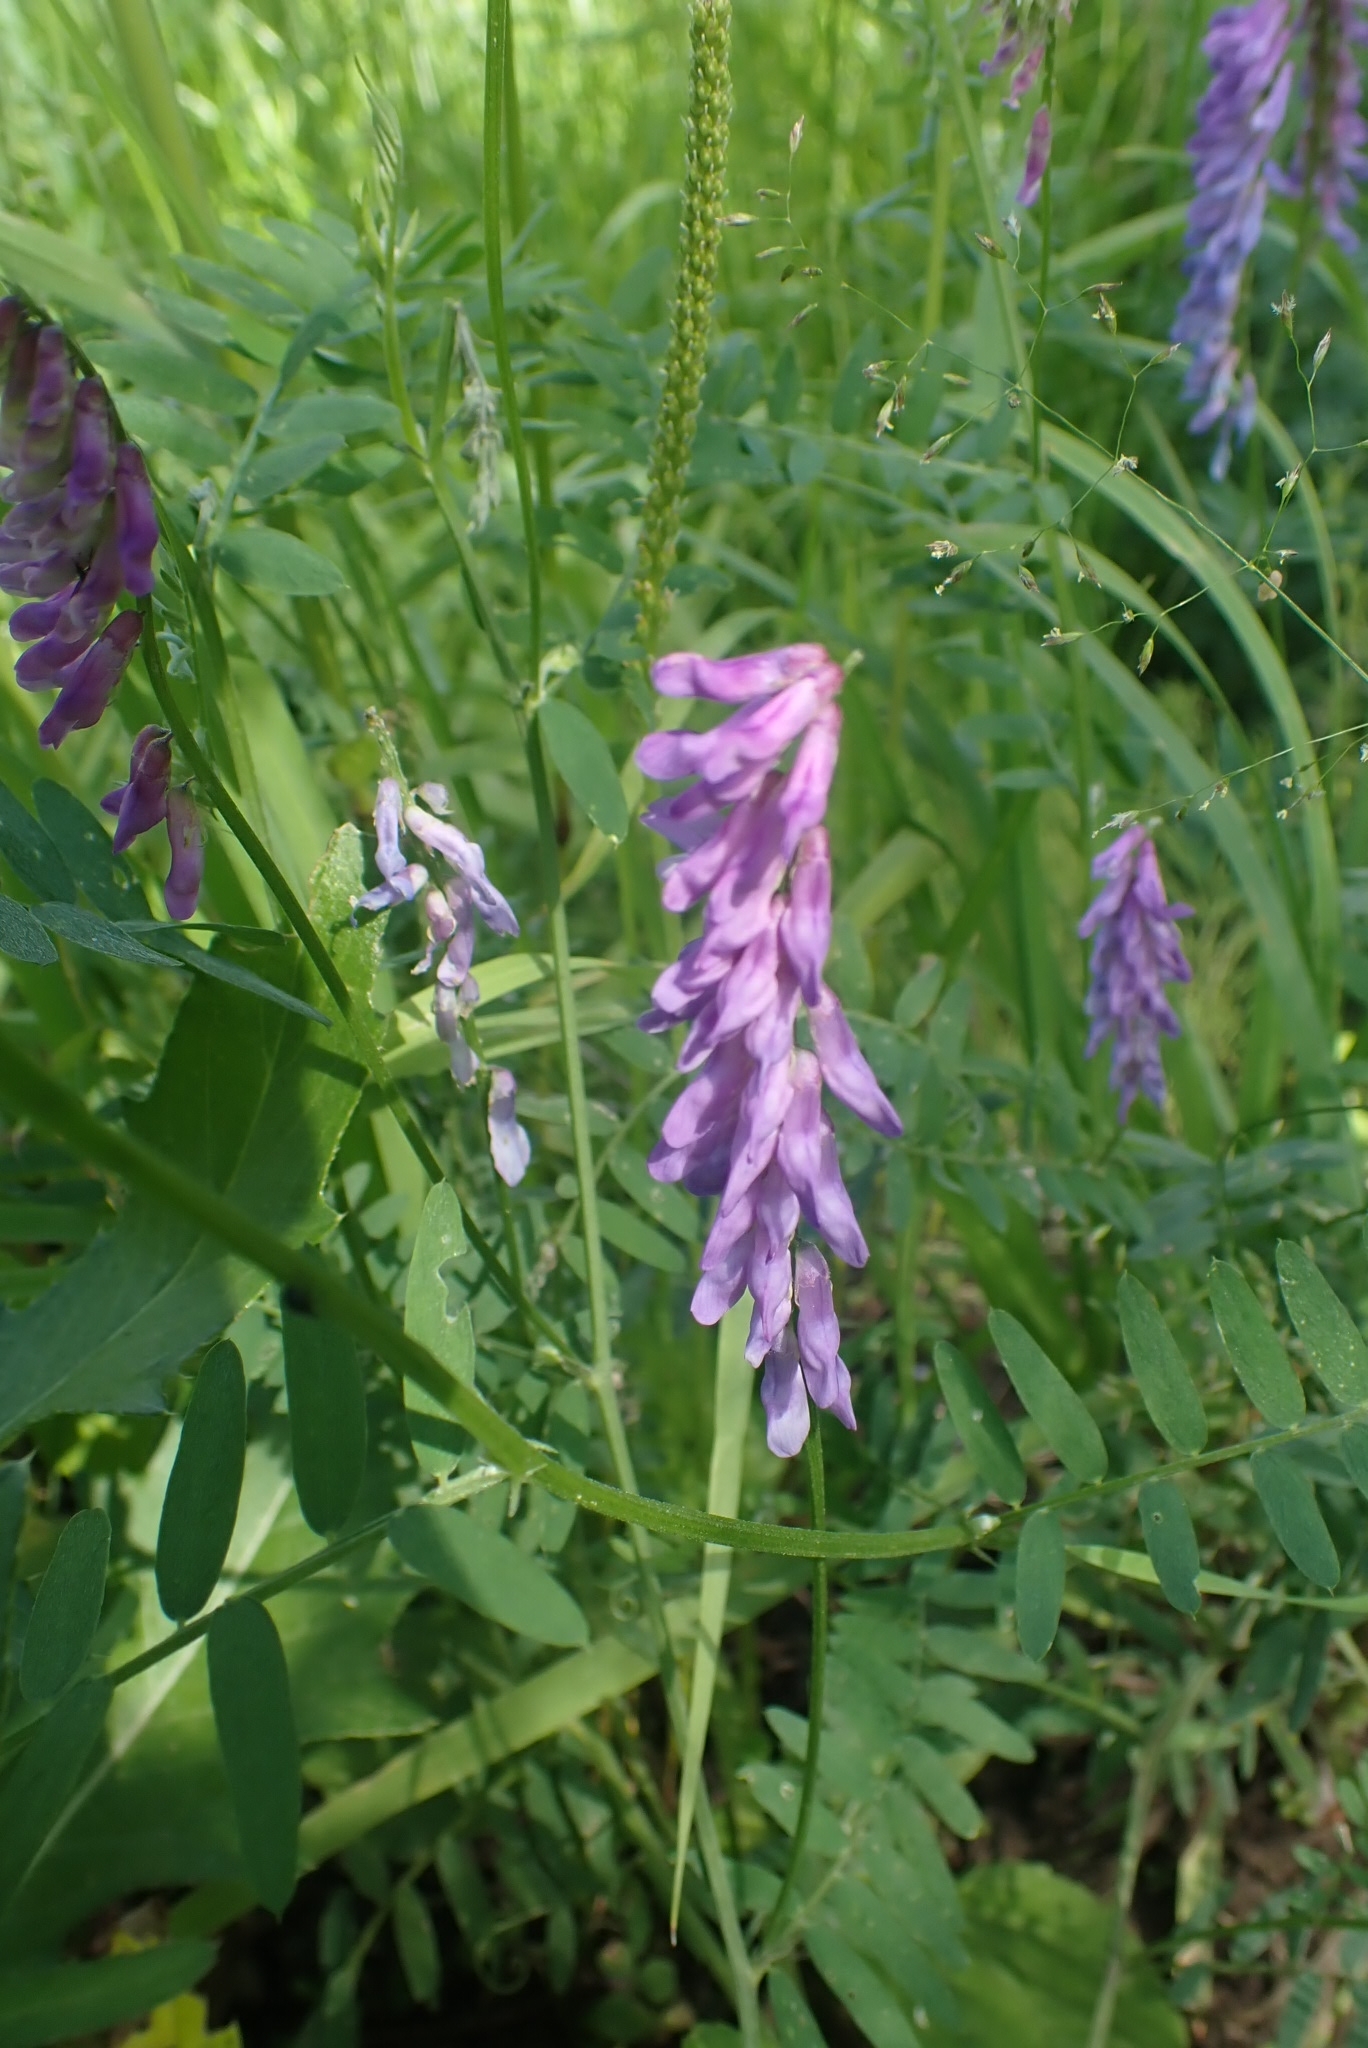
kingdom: Plantae
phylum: Tracheophyta
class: Magnoliopsida
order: Fabales
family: Fabaceae
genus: Vicia
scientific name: Vicia cracca
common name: Bird vetch
